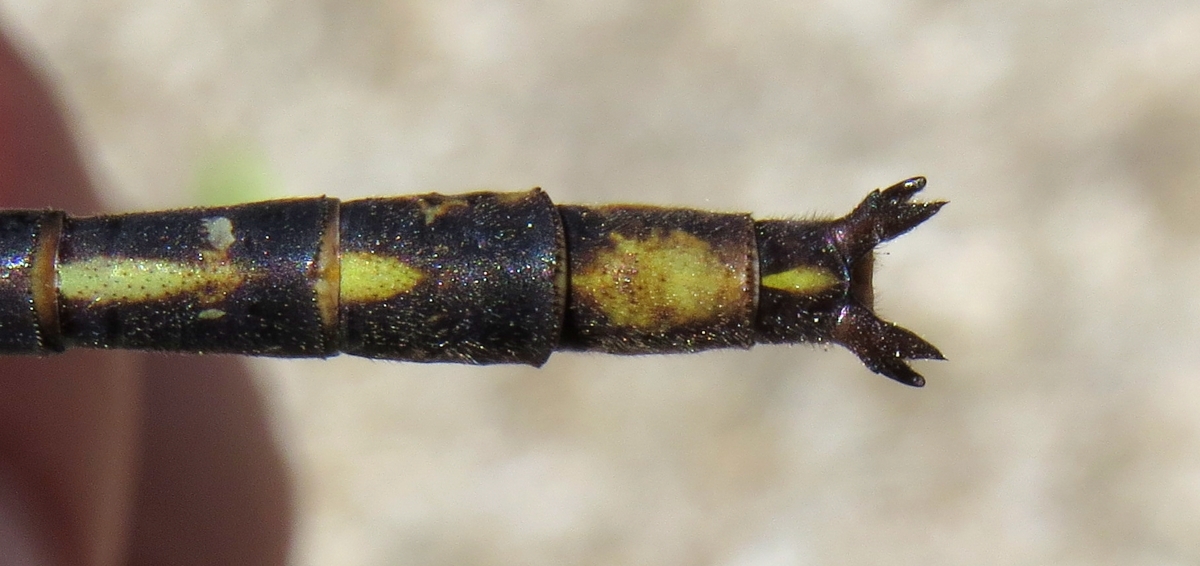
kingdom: Animalia
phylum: Arthropoda
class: Insecta
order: Odonata
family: Gomphidae
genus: Phanogomphus
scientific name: Phanogomphus spicatus
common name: Dusky clubtail
